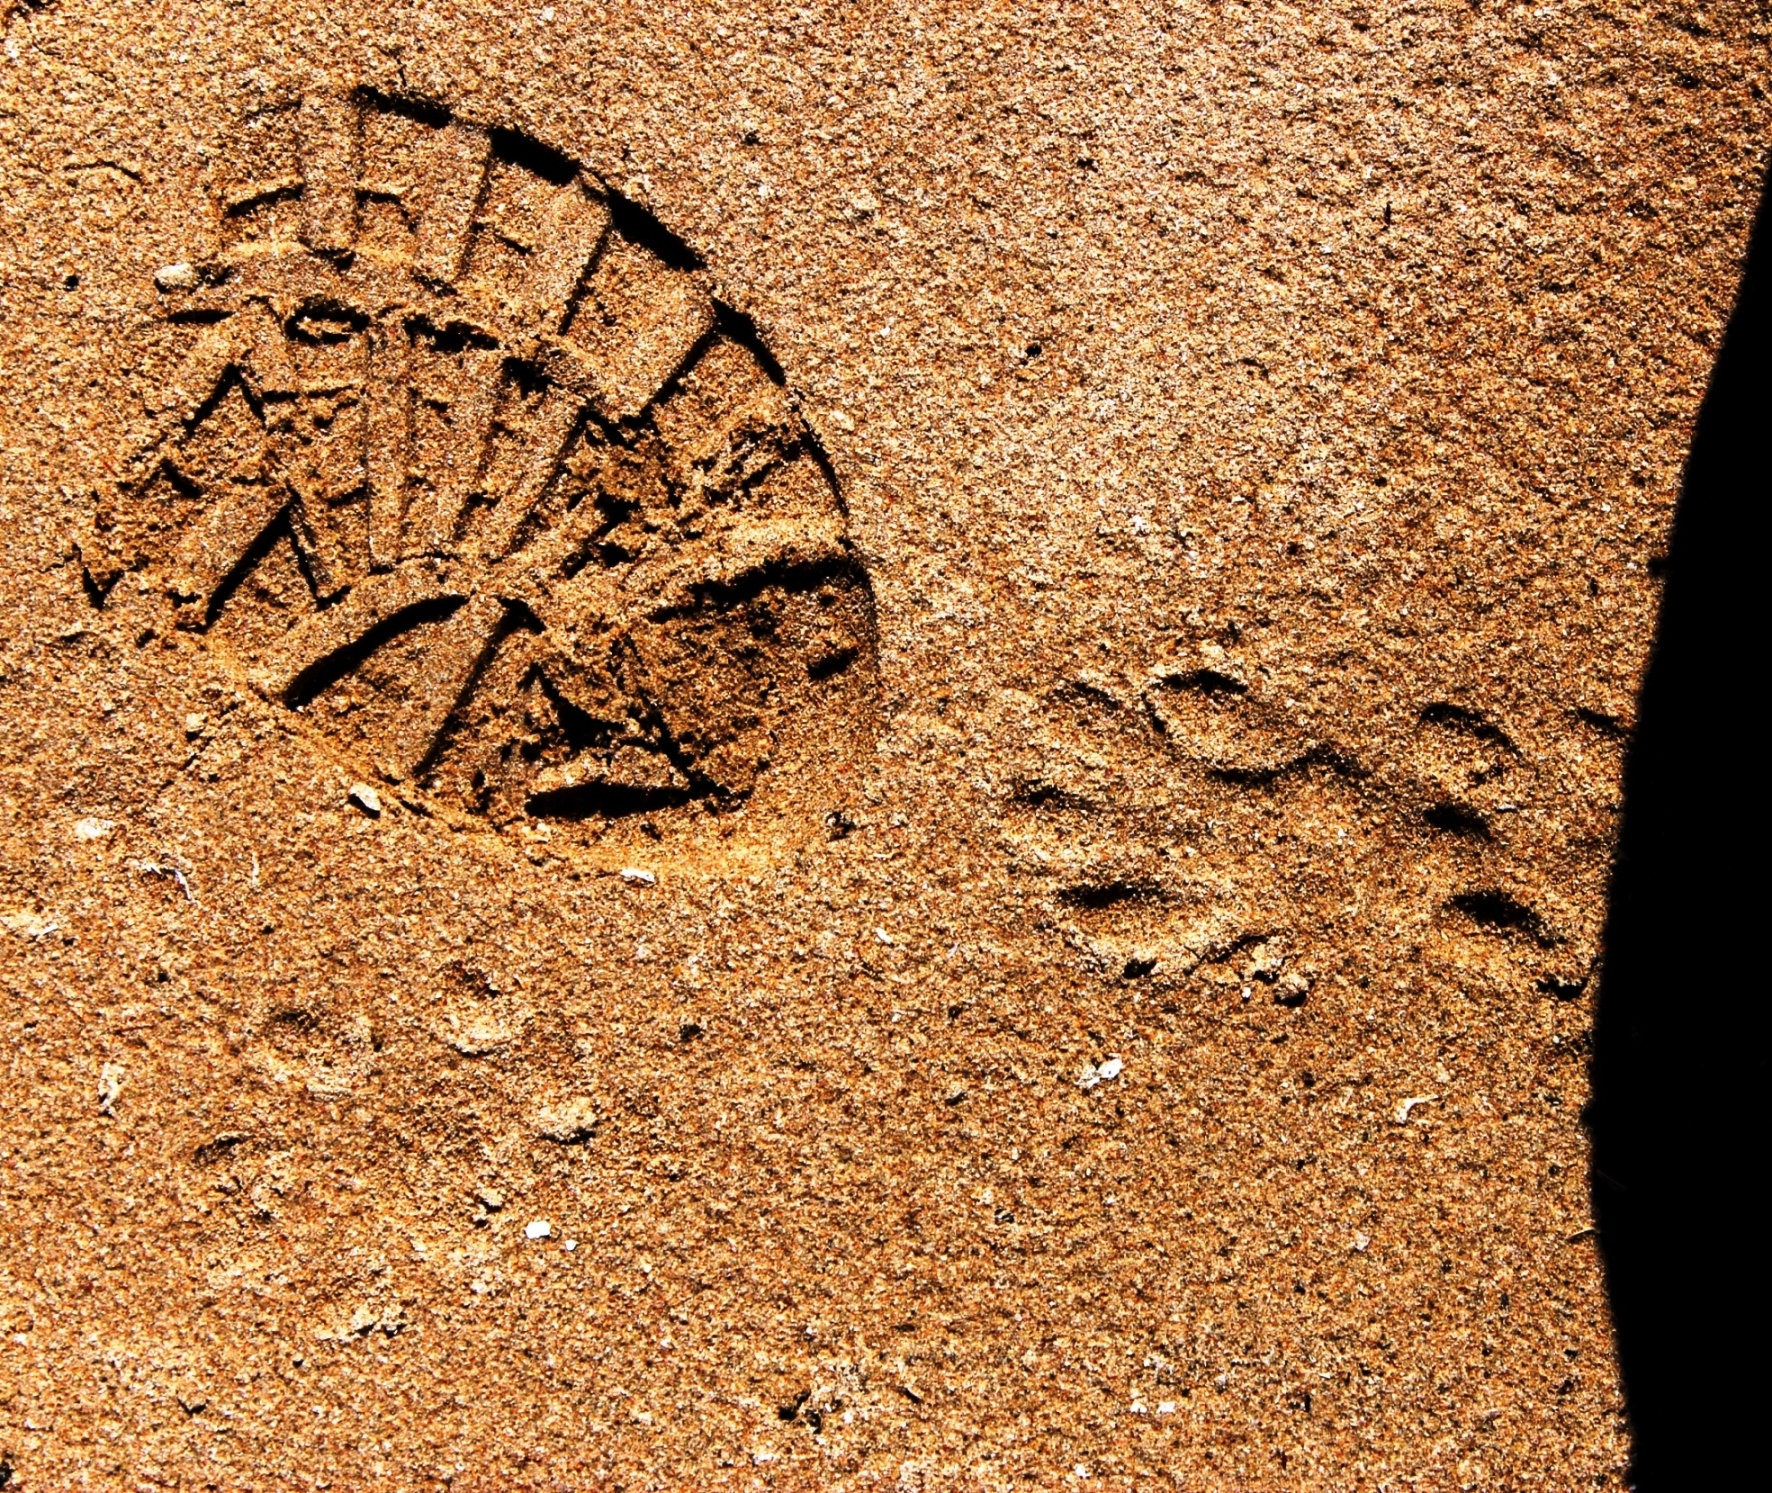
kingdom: Animalia
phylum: Chordata
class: Mammalia
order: Carnivora
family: Mustelidae
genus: Aonyx
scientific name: Aonyx capensis
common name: African clawless otter
